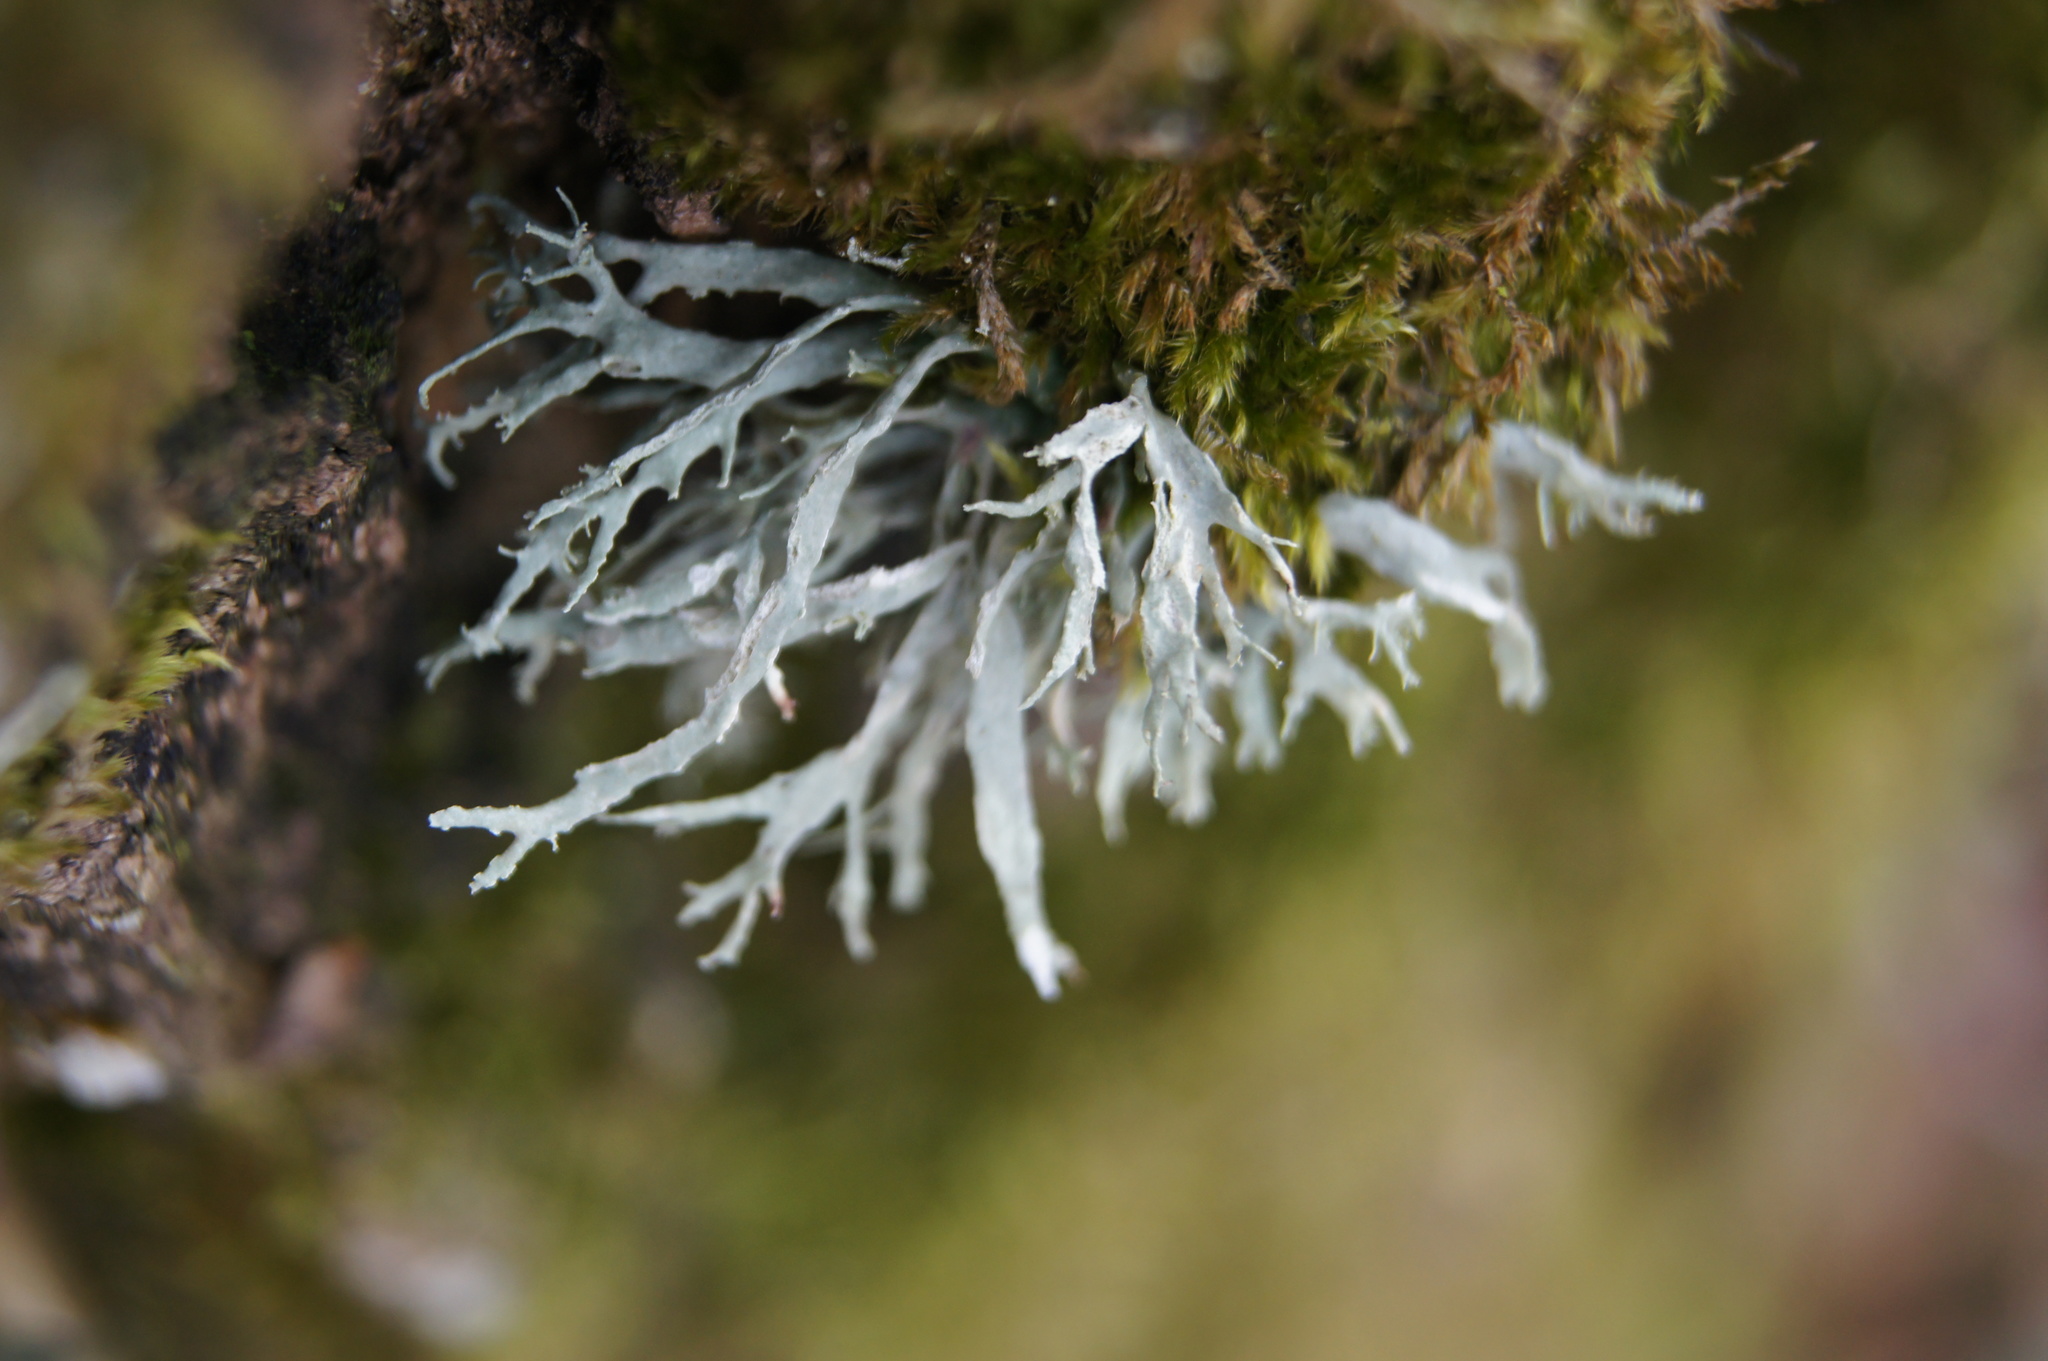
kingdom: Fungi
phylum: Ascomycota
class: Lecanoromycetes
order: Lecanorales
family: Parmeliaceae
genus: Evernia
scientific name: Evernia prunastri
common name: Oak moss
